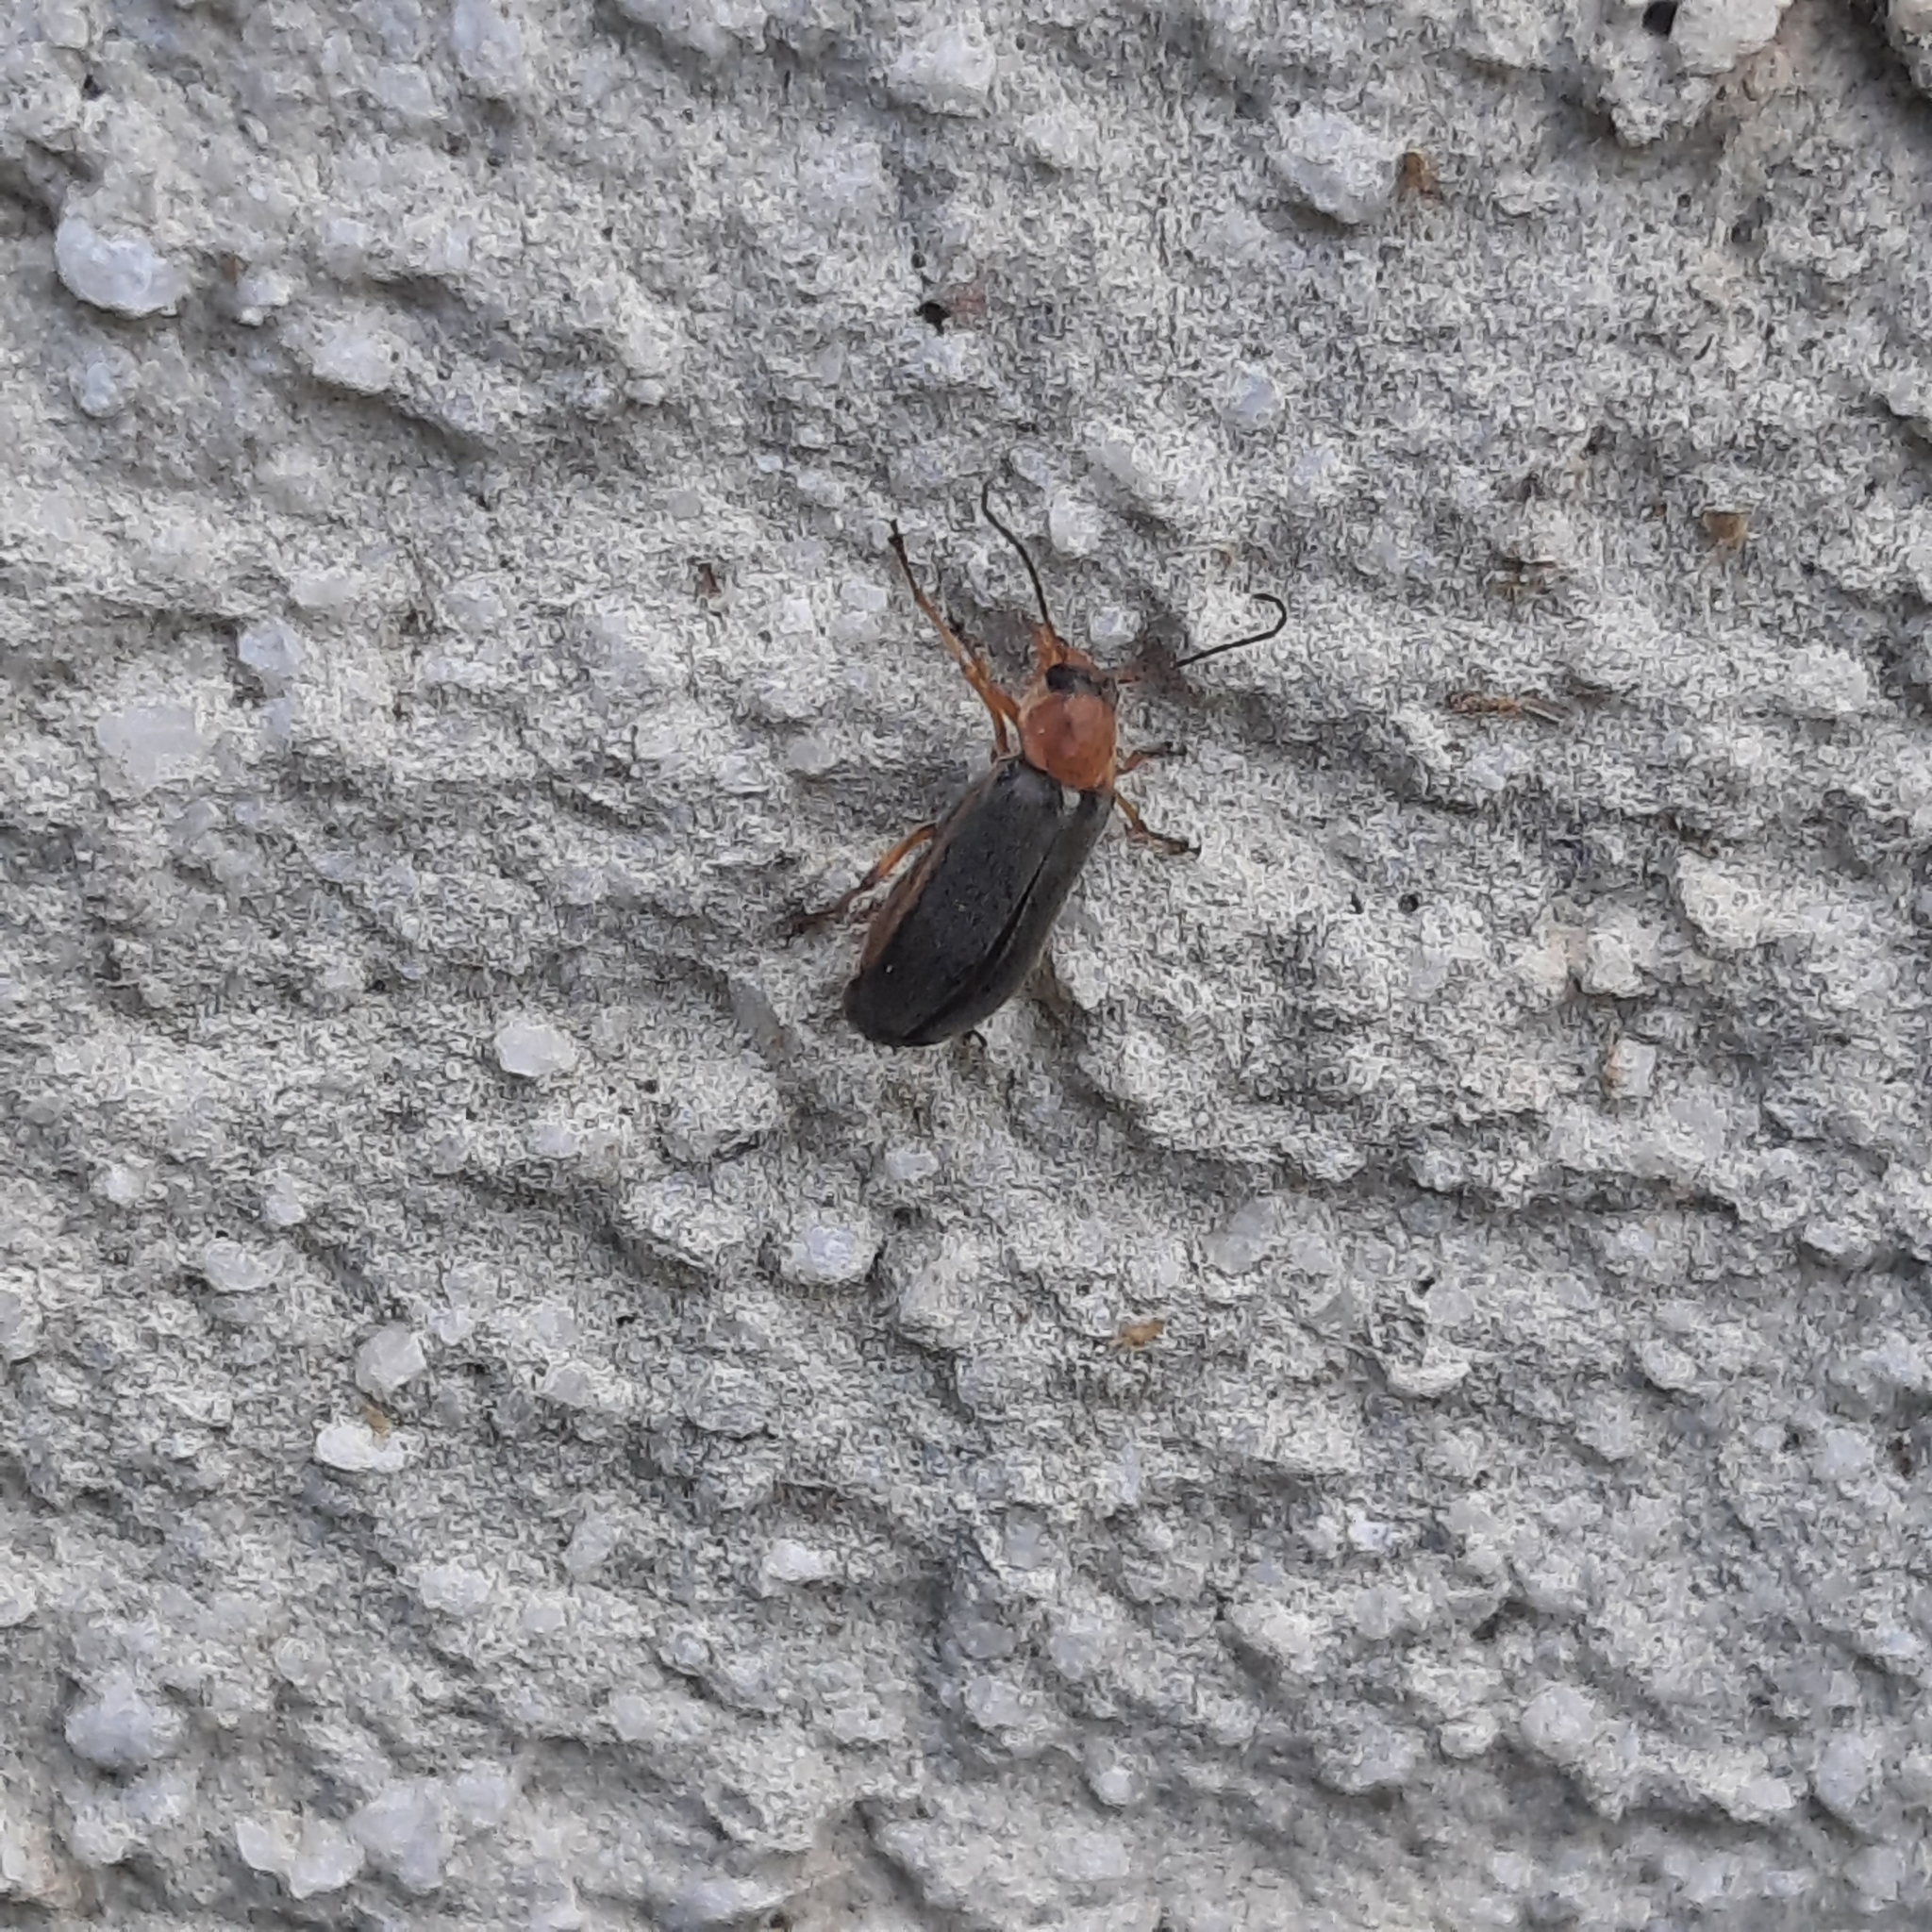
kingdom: Animalia
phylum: Arthropoda
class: Insecta
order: Coleoptera
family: Melandryidae
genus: Osphya
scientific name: Osphya bipunctata
